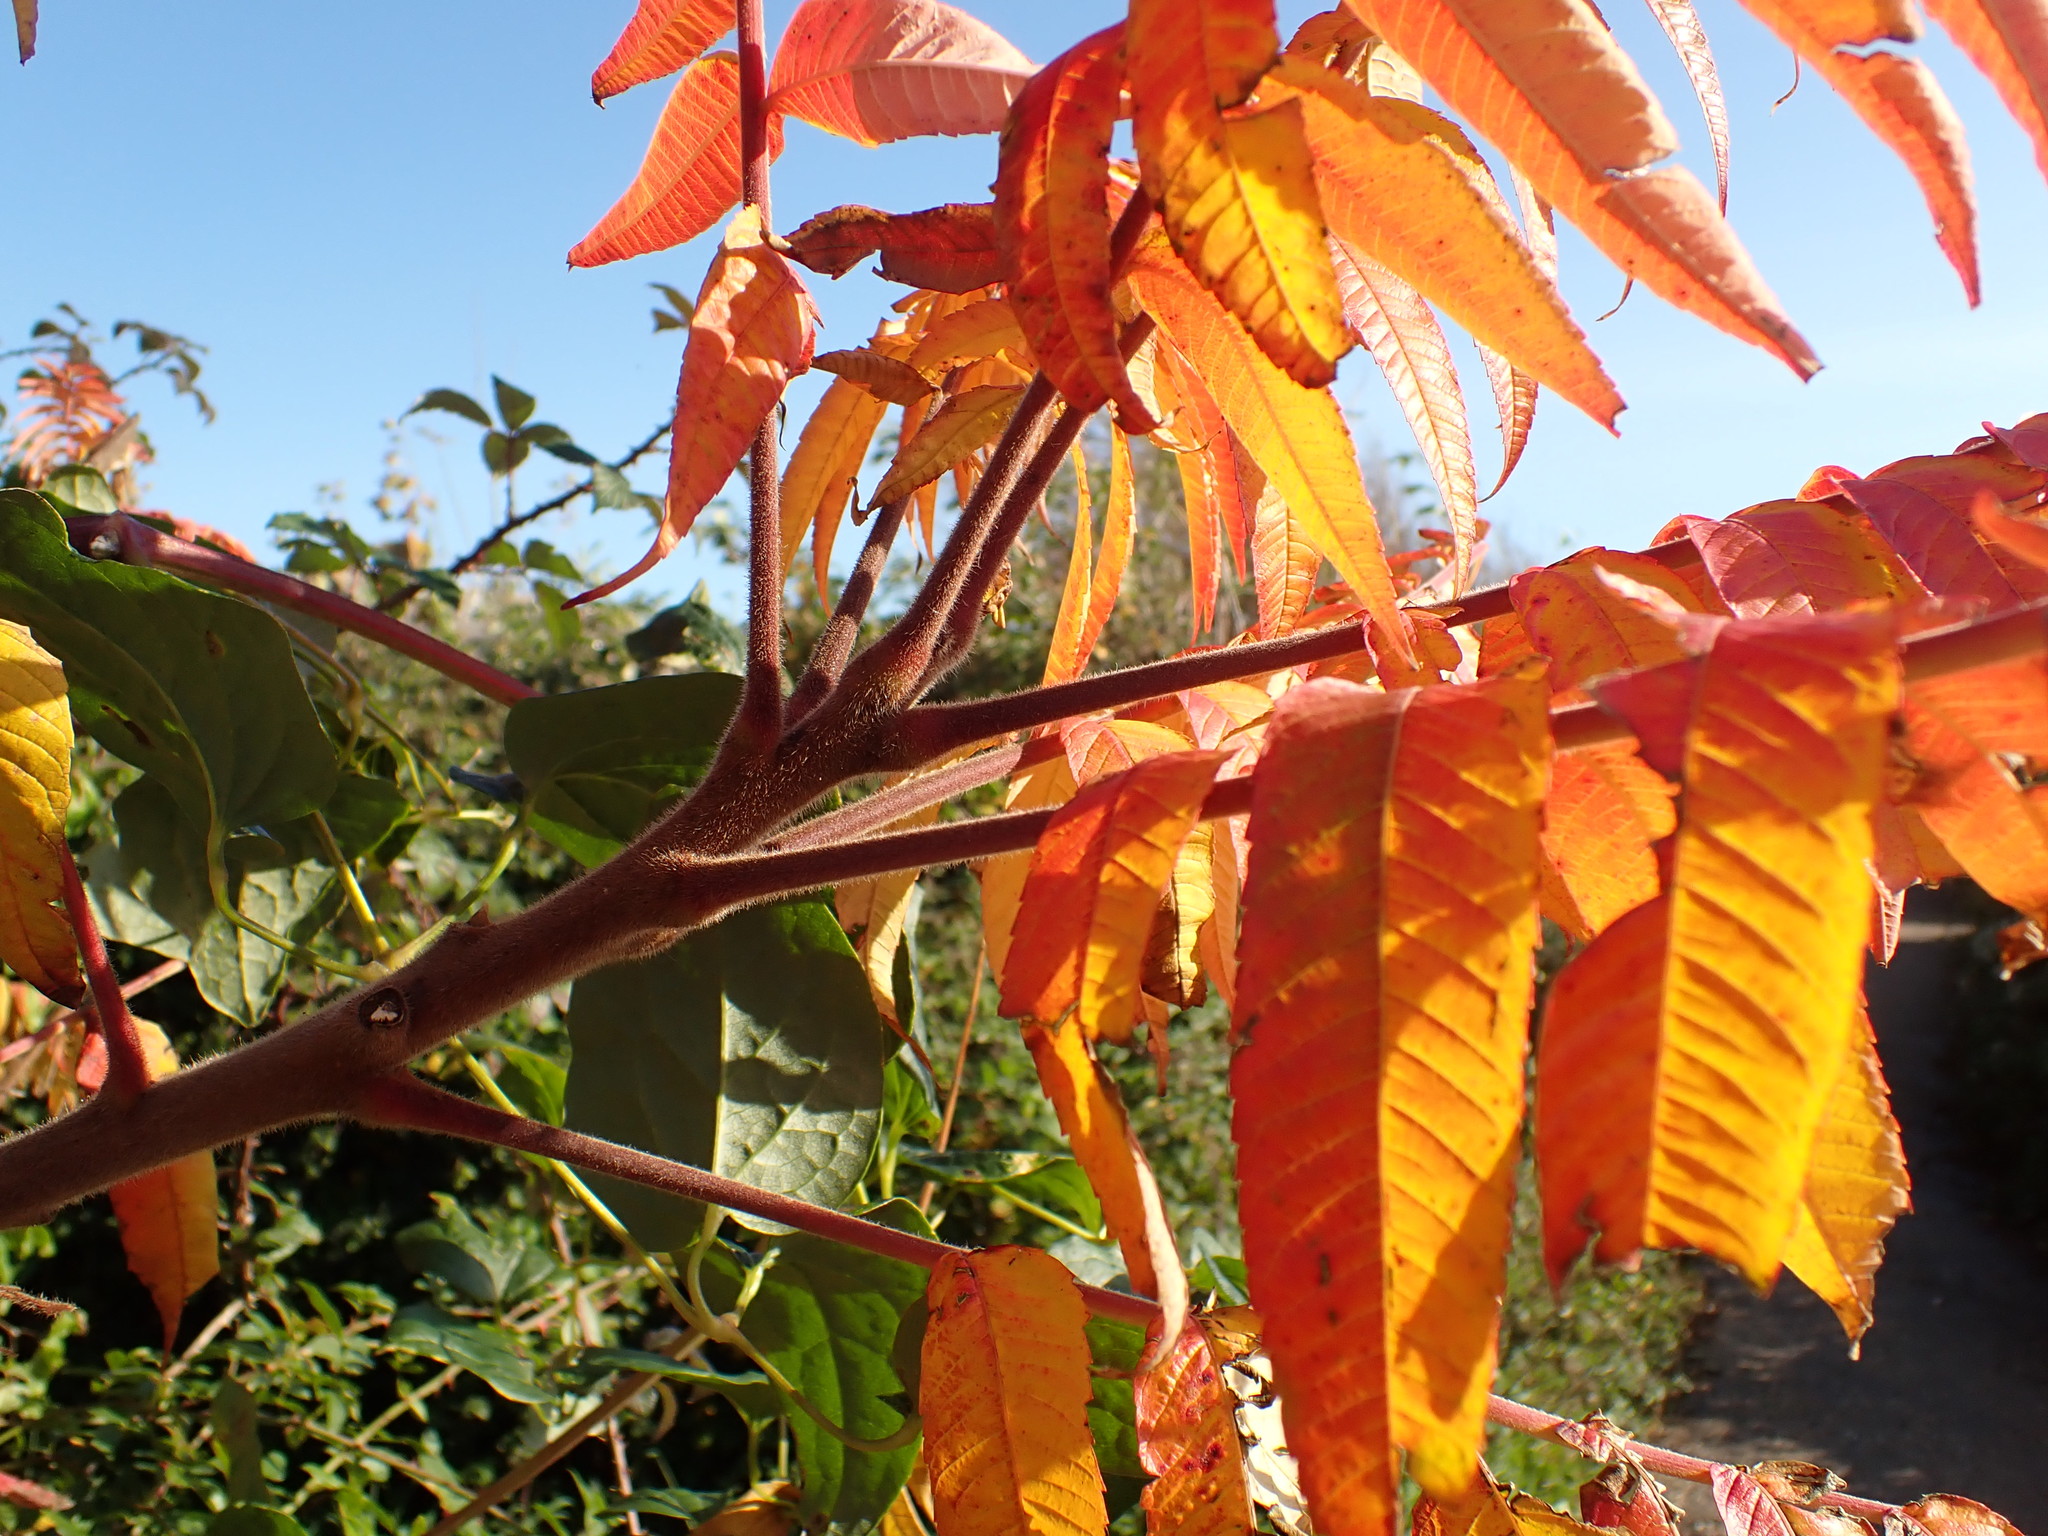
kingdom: Plantae
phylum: Tracheophyta
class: Magnoliopsida
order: Sapindales
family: Anacardiaceae
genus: Rhus
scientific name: Rhus typhina
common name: Staghorn sumac
